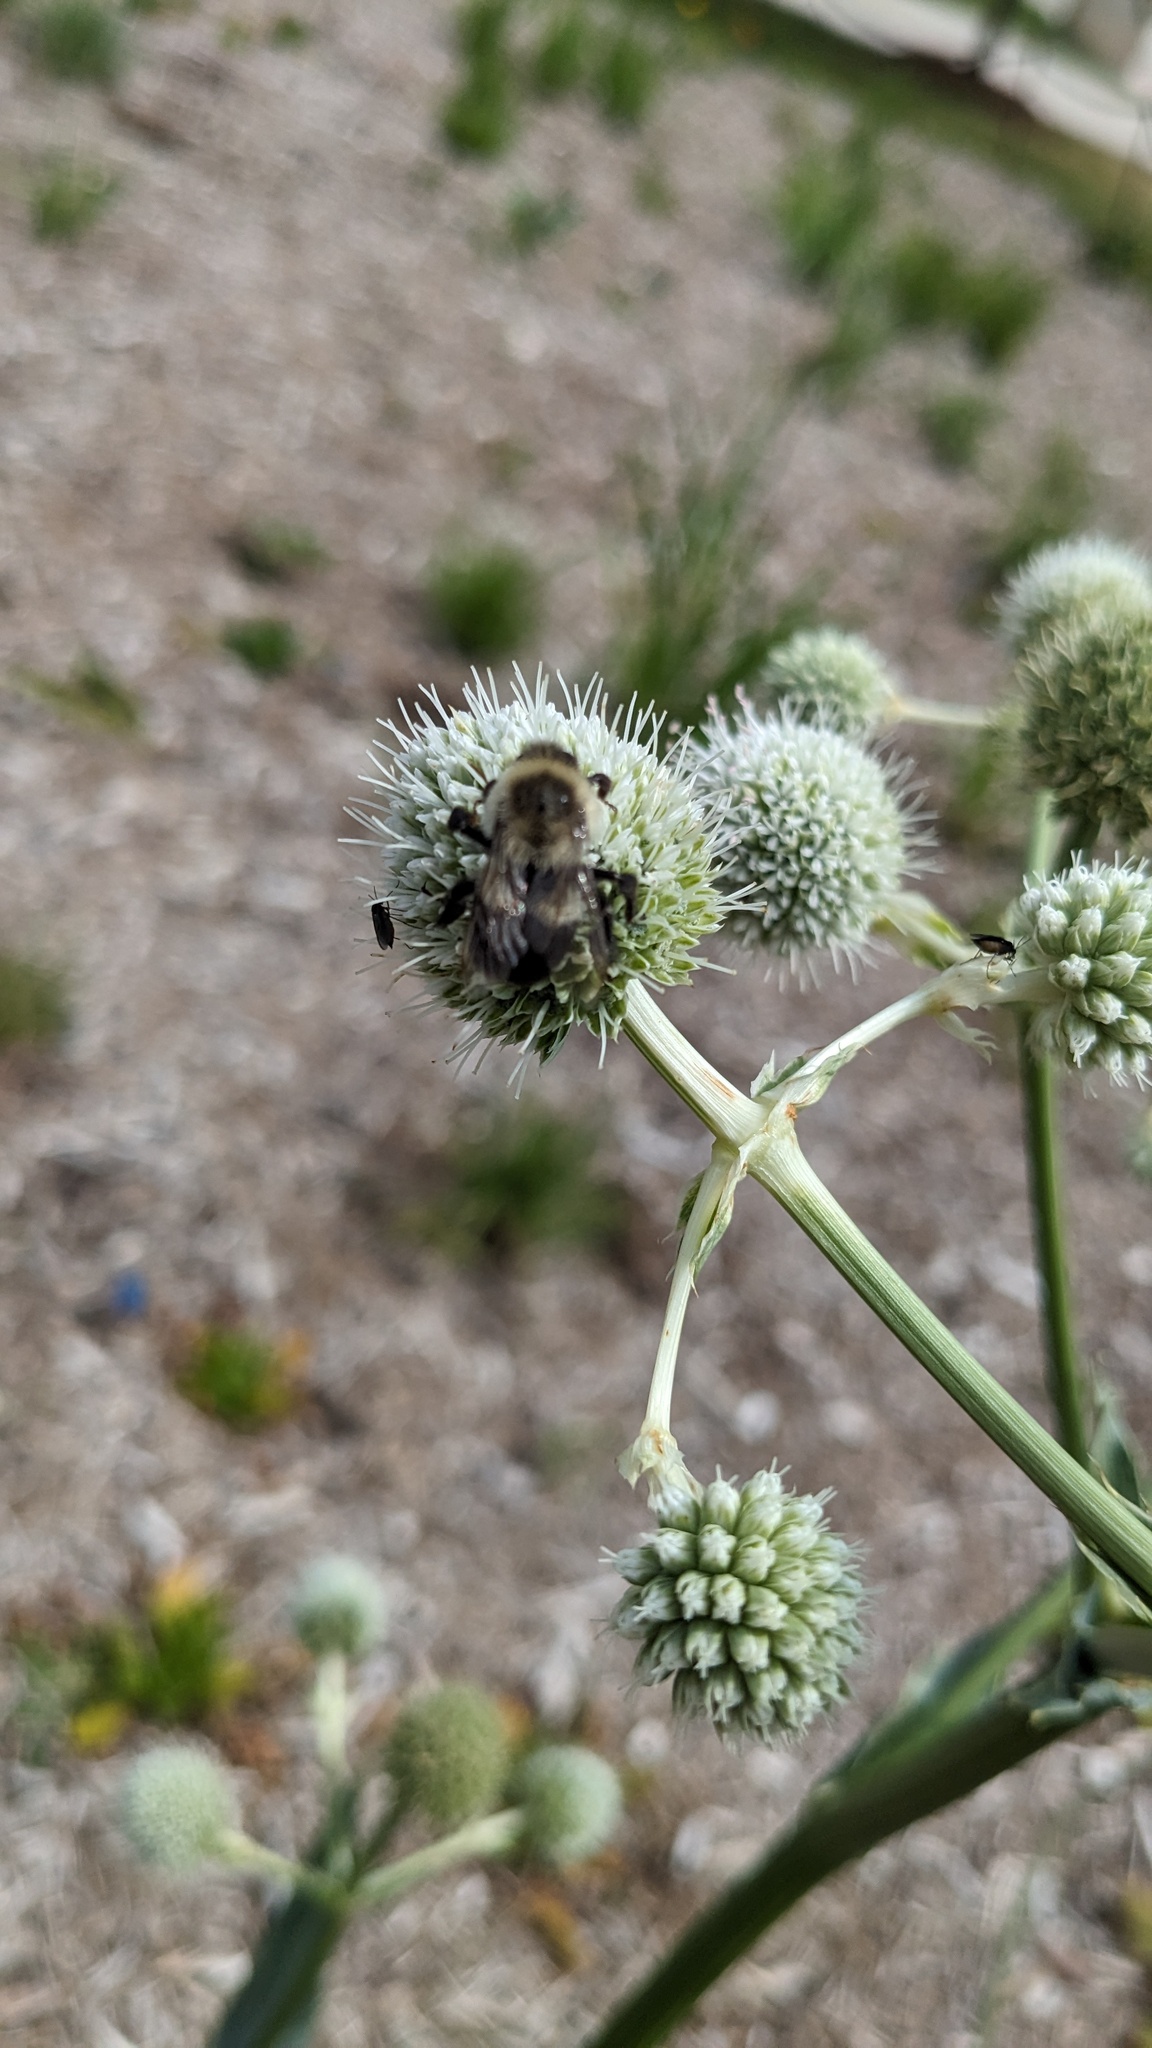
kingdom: Animalia
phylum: Arthropoda
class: Insecta
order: Hymenoptera
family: Apidae
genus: Bombus
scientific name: Bombus impatiens
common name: Common eastern bumble bee
